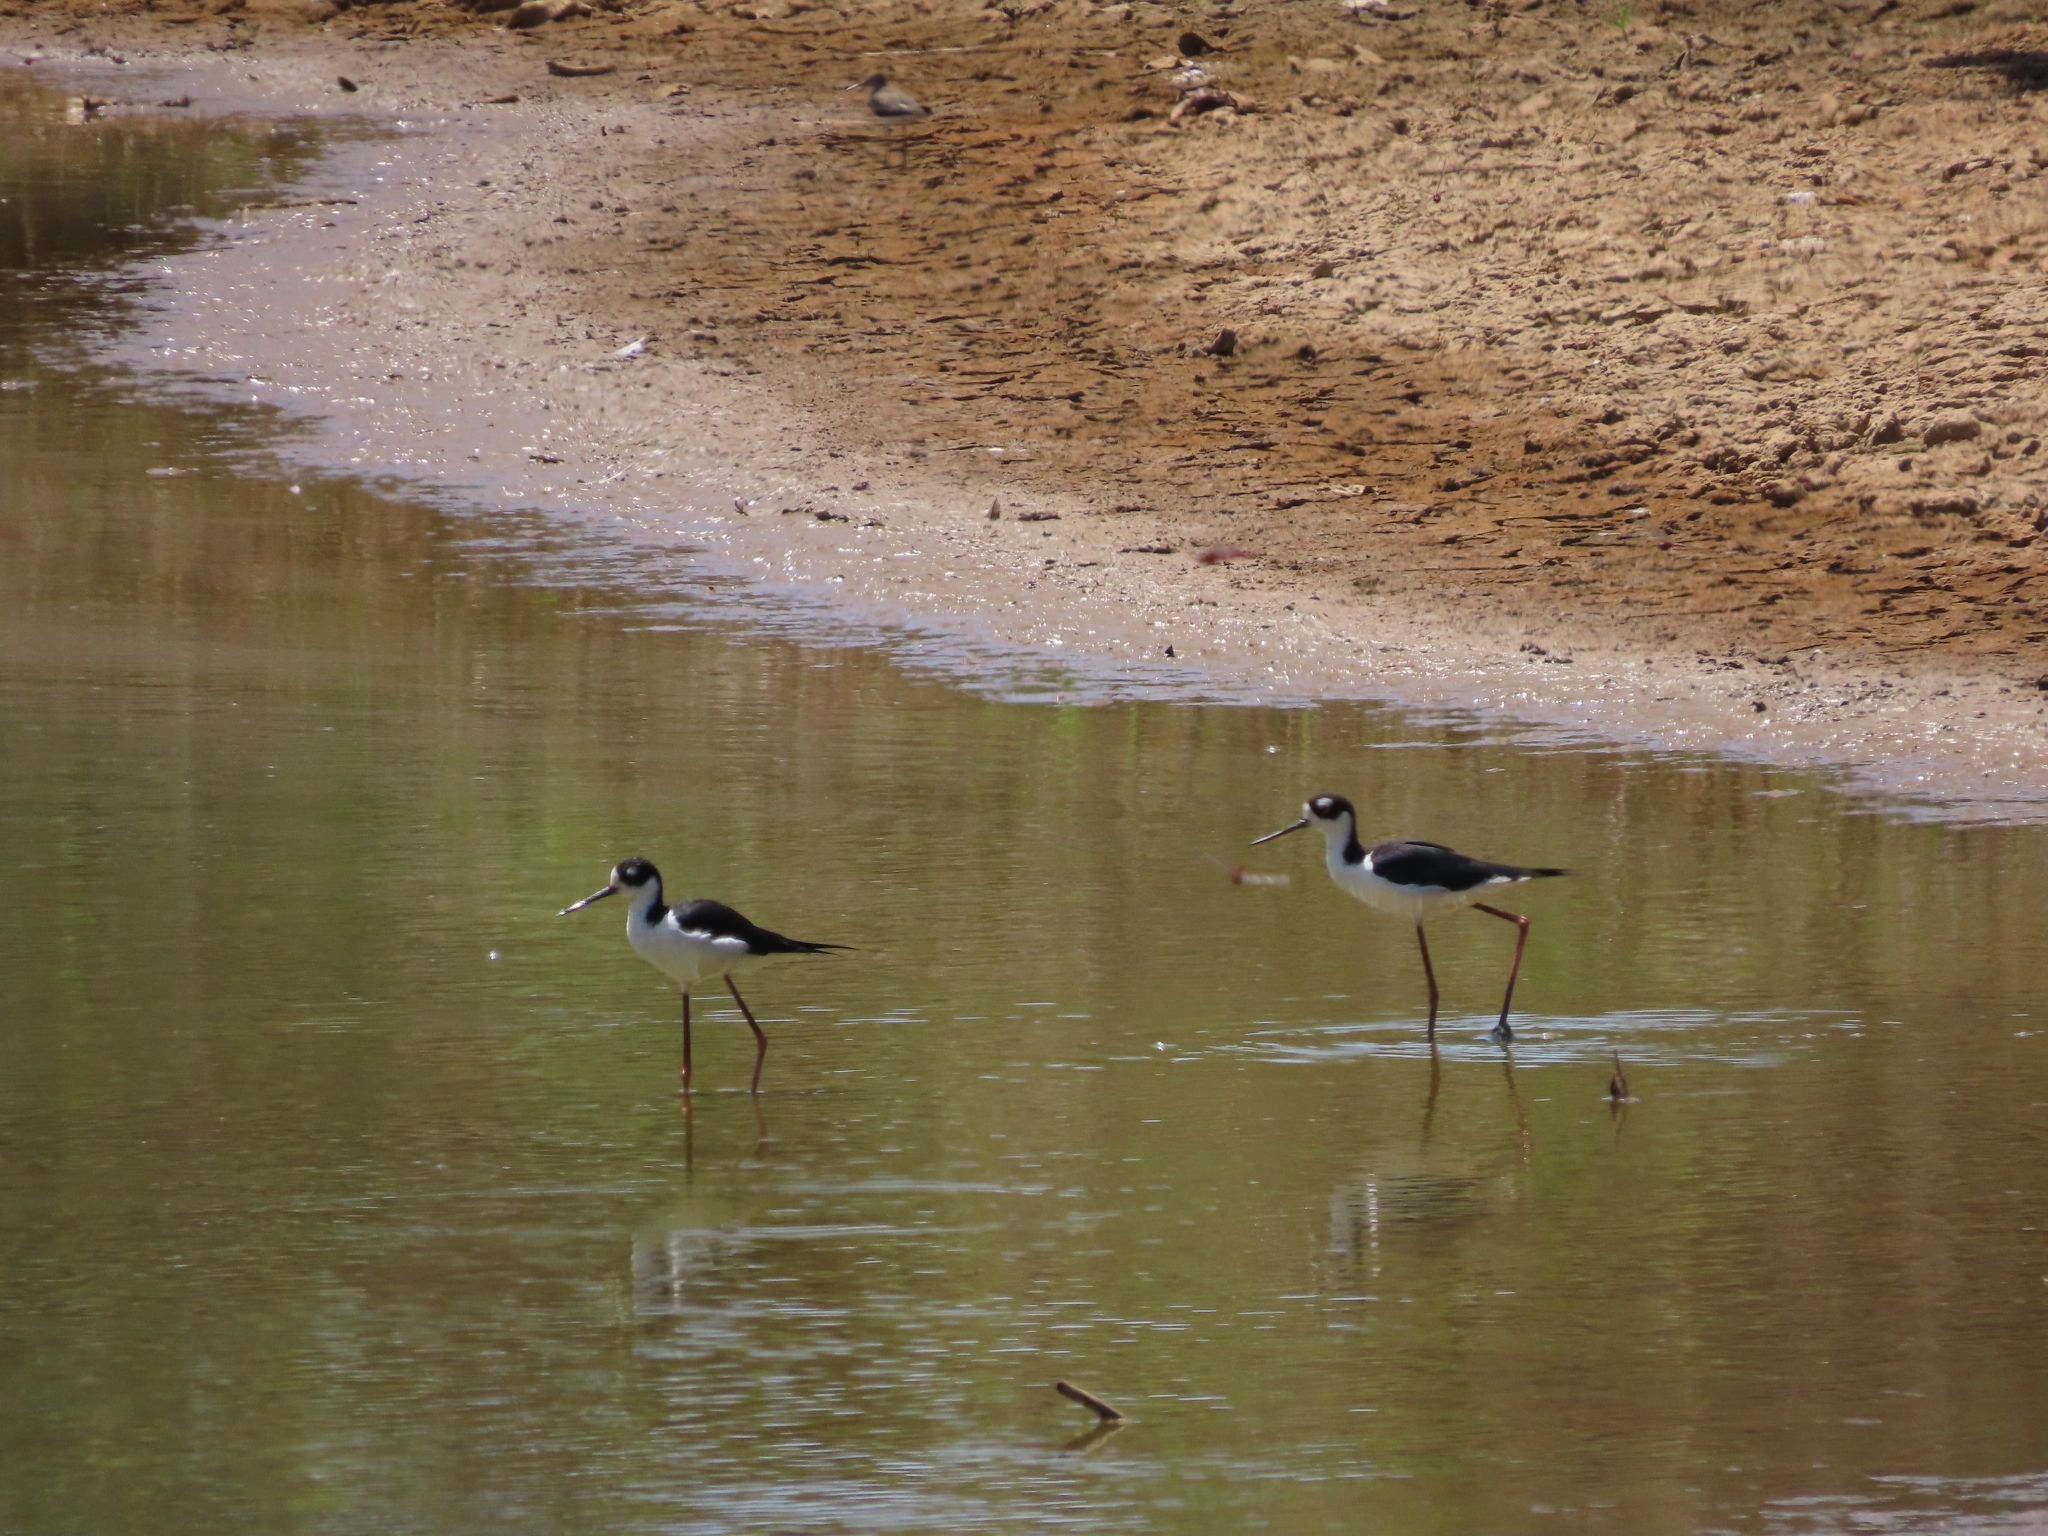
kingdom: Animalia
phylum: Chordata
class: Aves
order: Charadriiformes
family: Recurvirostridae
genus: Himantopus
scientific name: Himantopus mexicanus
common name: Black-necked stilt
